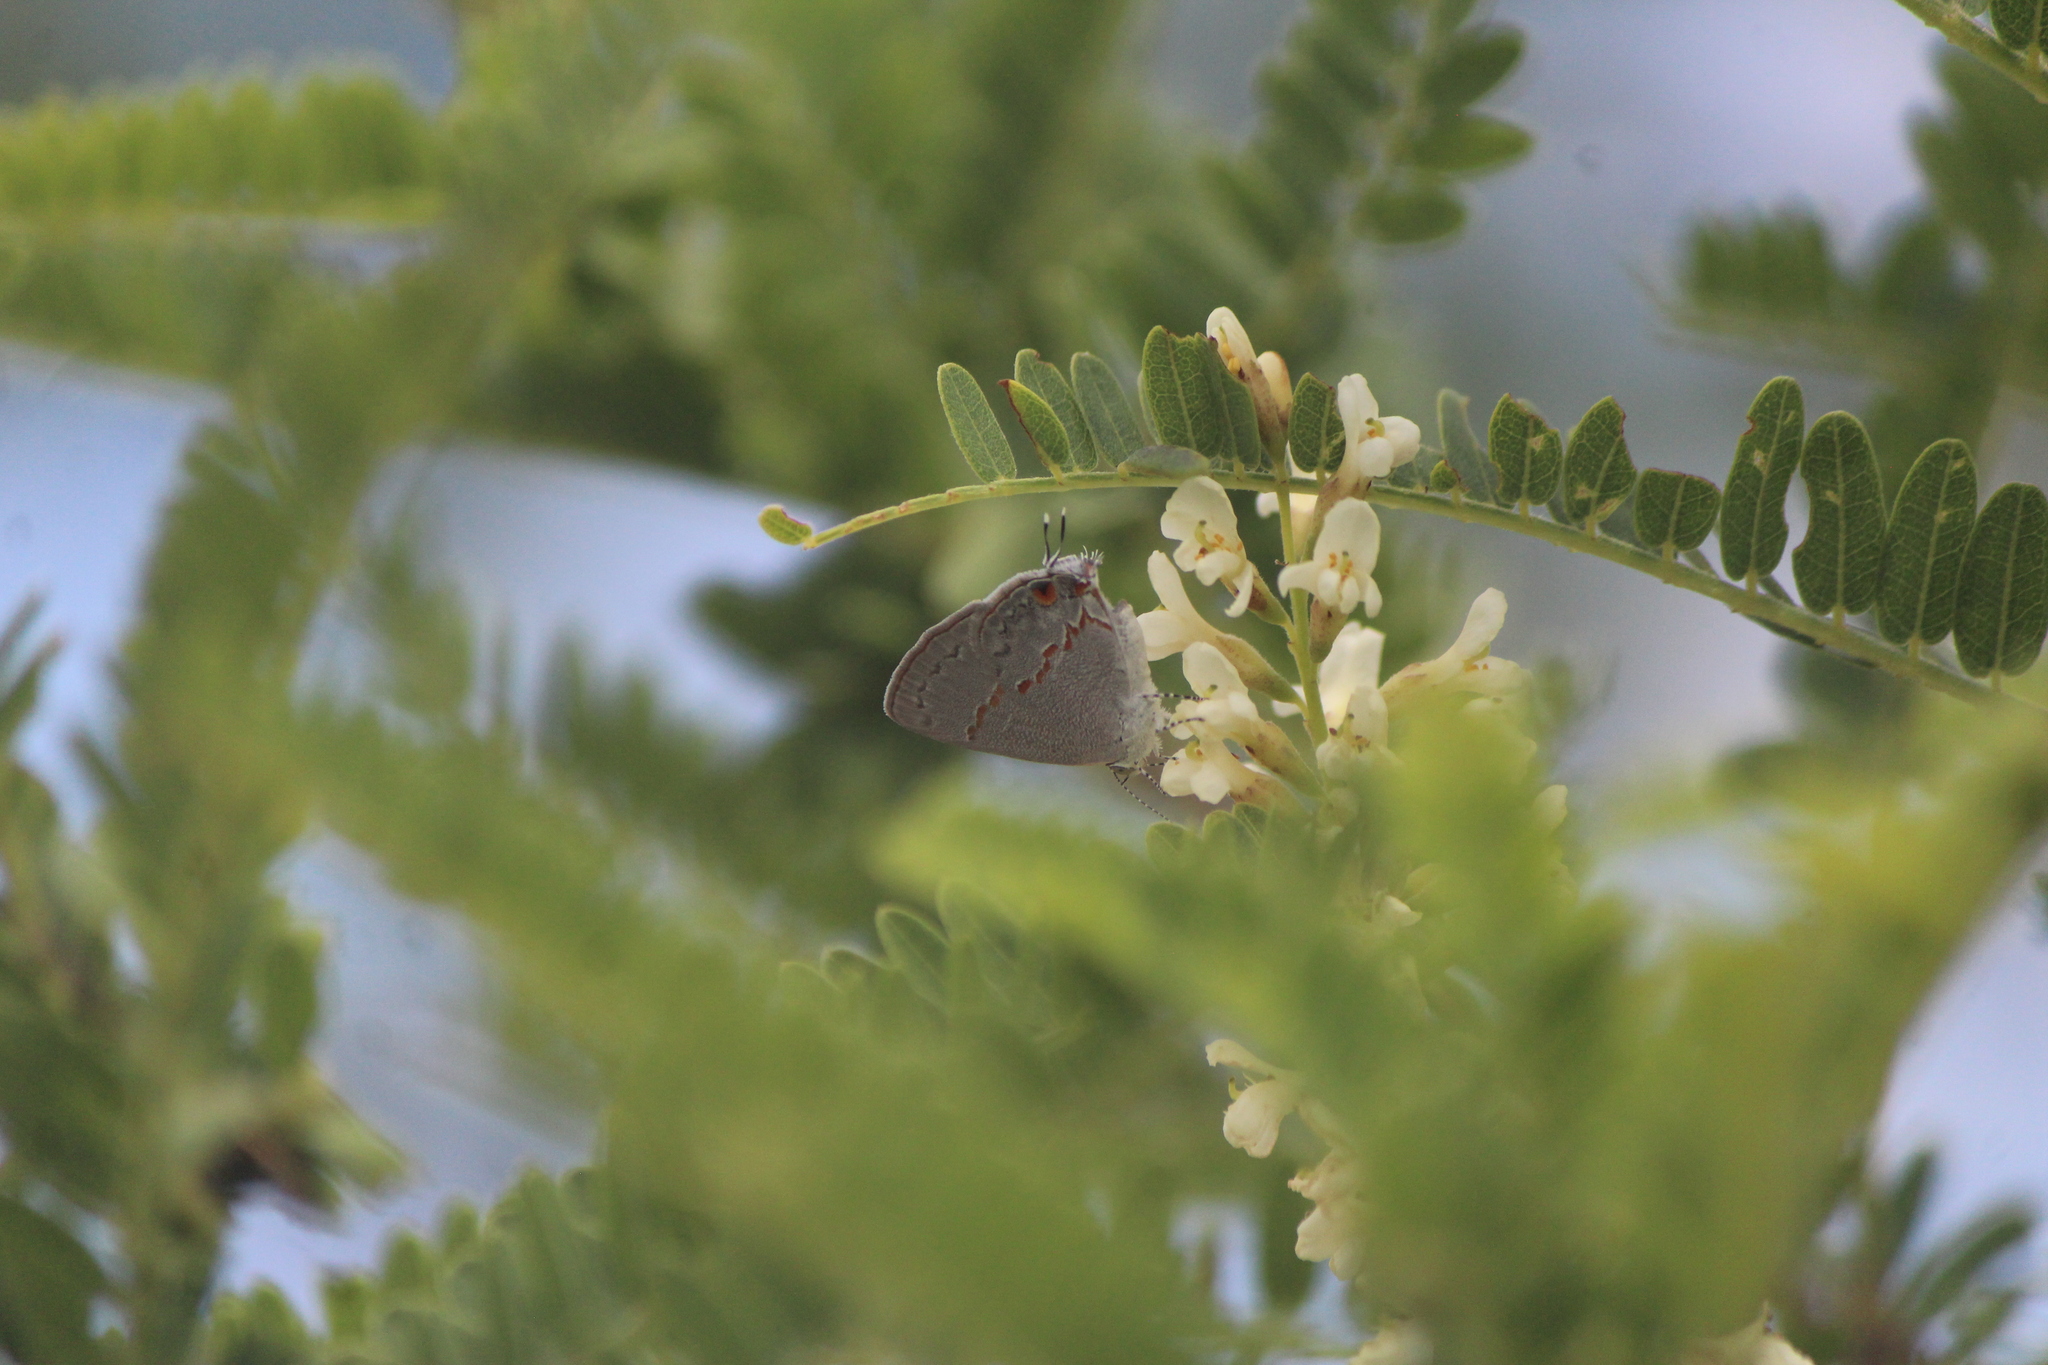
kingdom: Animalia
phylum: Arthropoda
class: Insecta
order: Lepidoptera
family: Lycaenidae
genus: Ministrymon
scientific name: Ministrymon janevicroy
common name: Pebbly ministreak
